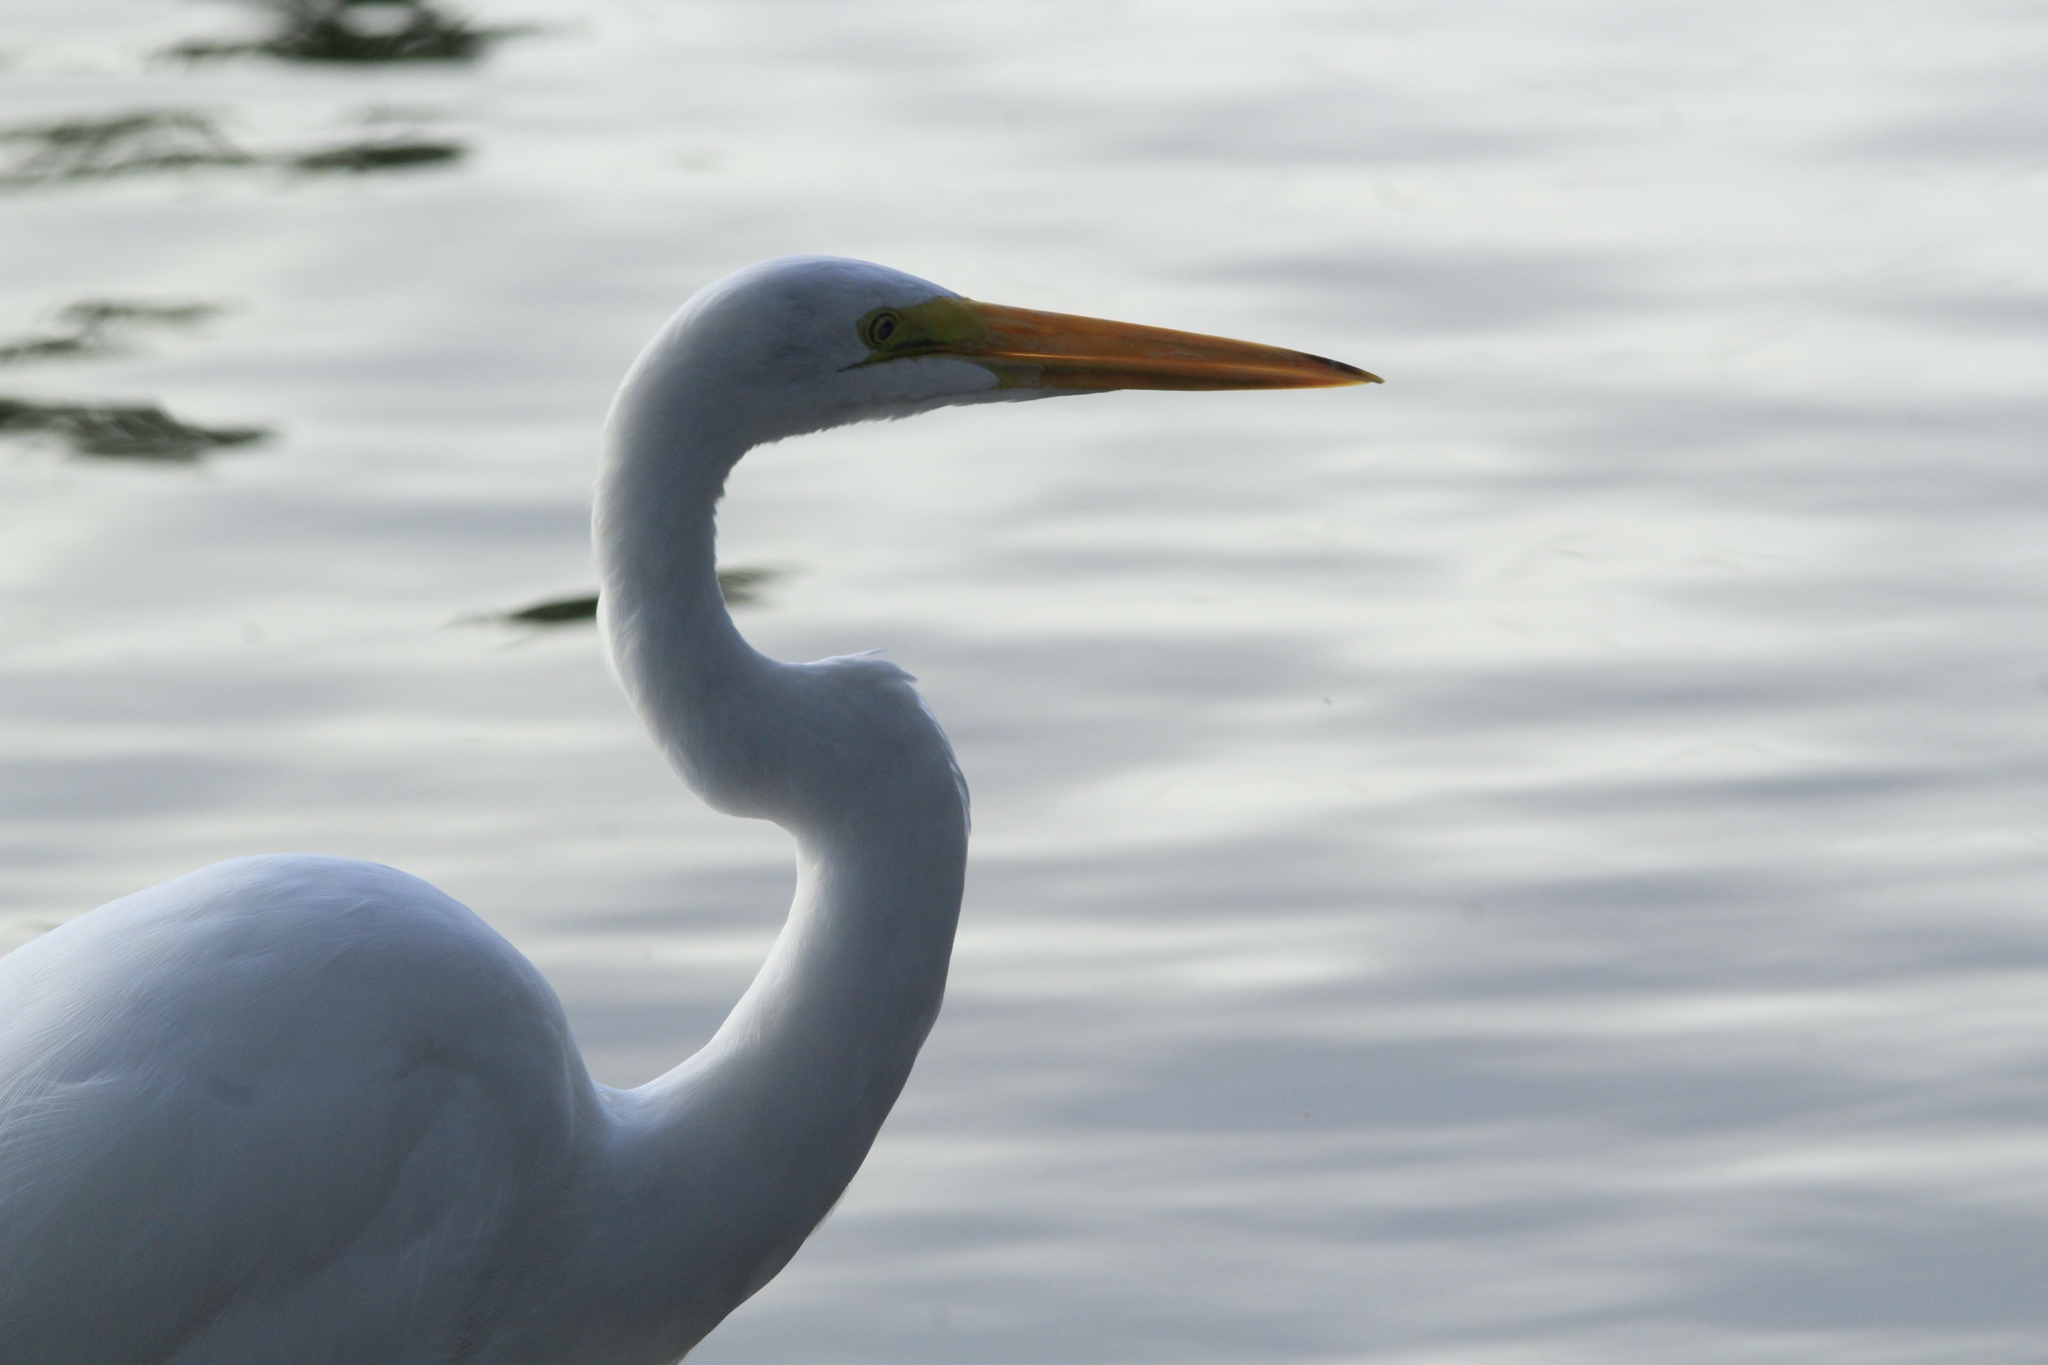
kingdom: Animalia
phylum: Chordata
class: Aves
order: Pelecaniformes
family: Ardeidae
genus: Ardea
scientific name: Ardea alba
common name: Great egret
